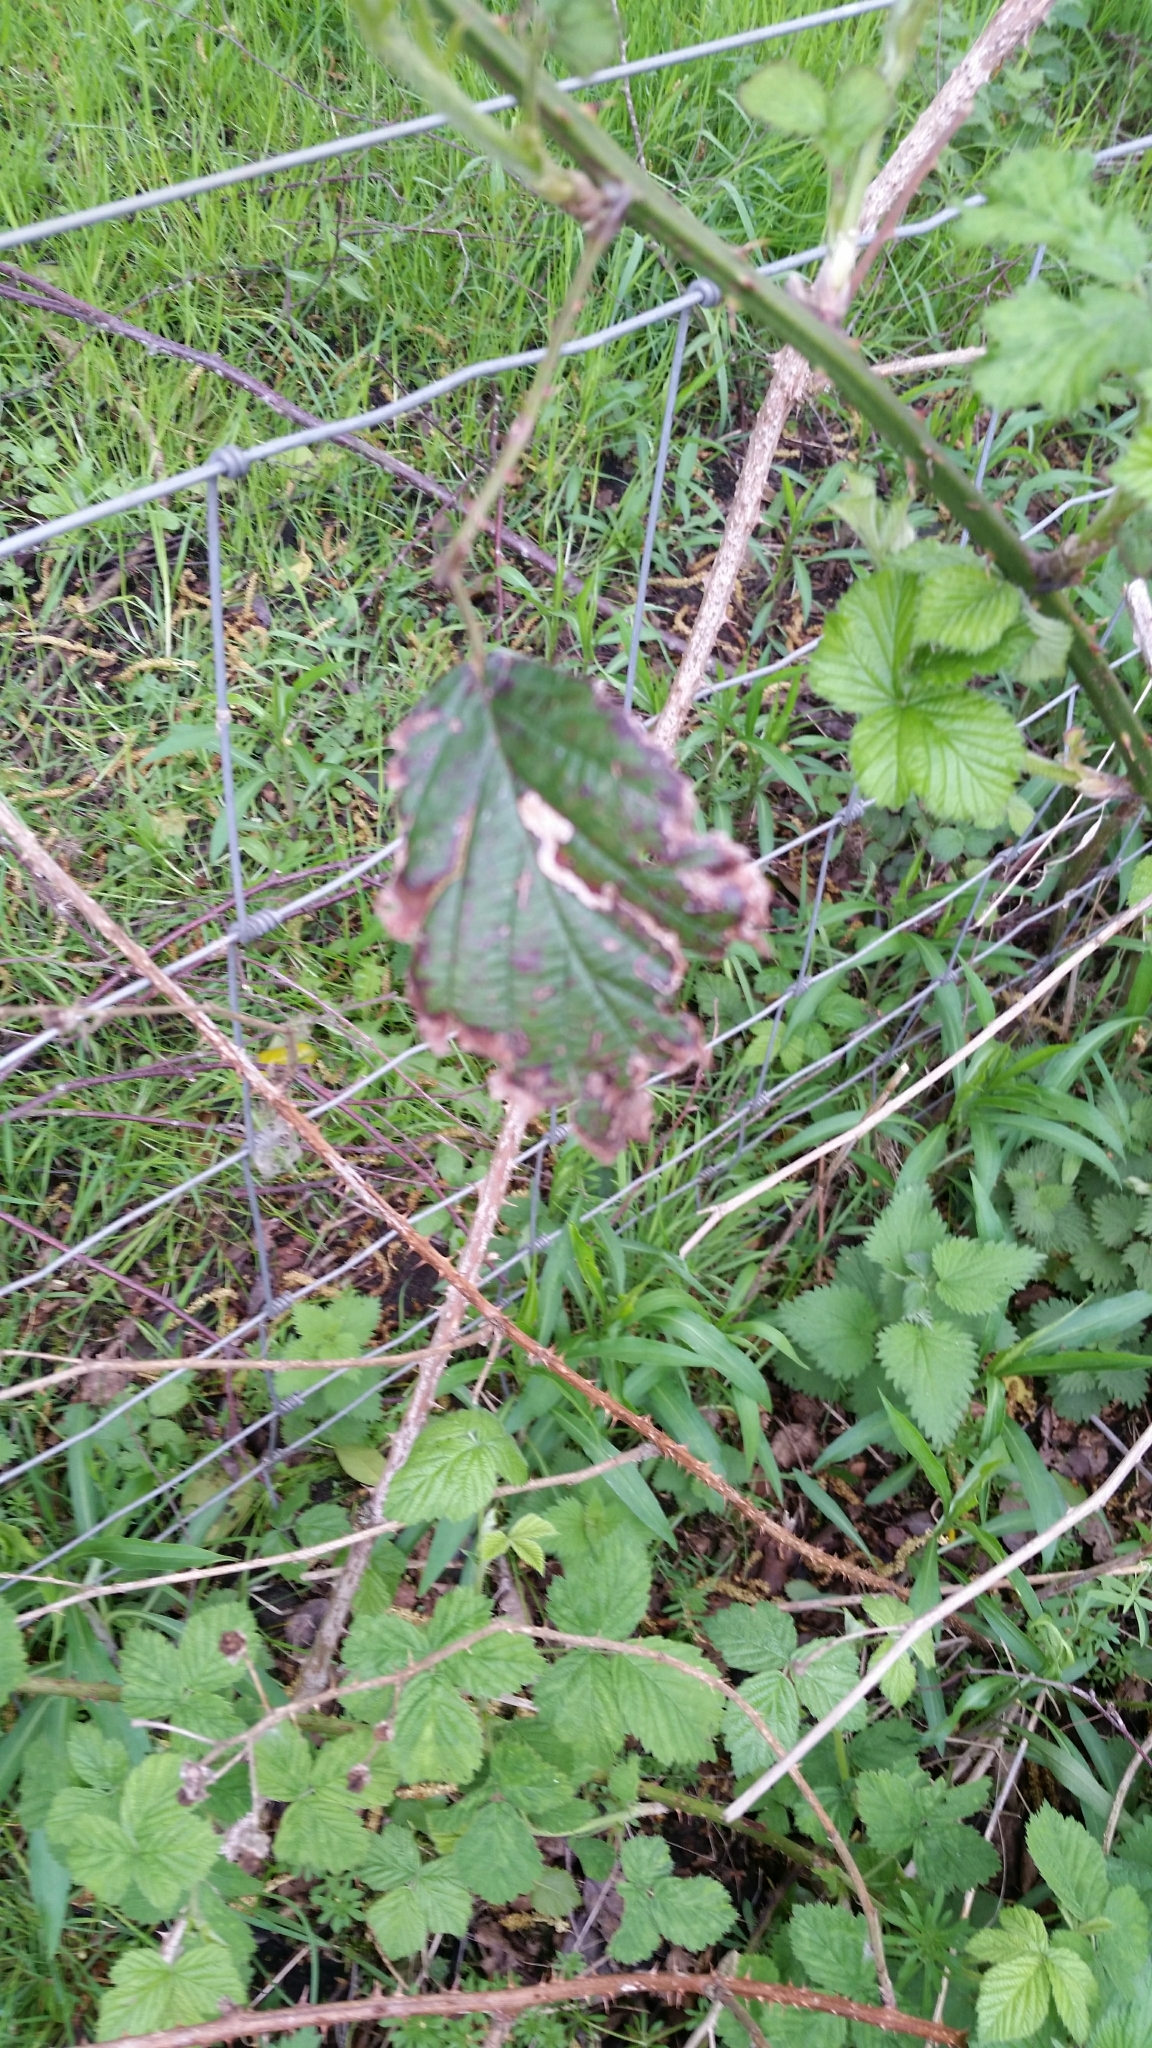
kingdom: Animalia
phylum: Arthropoda
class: Insecta
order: Lepidoptera
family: Nepticulidae
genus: Stigmella
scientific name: Stigmella aurella
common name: Golden pigmy
